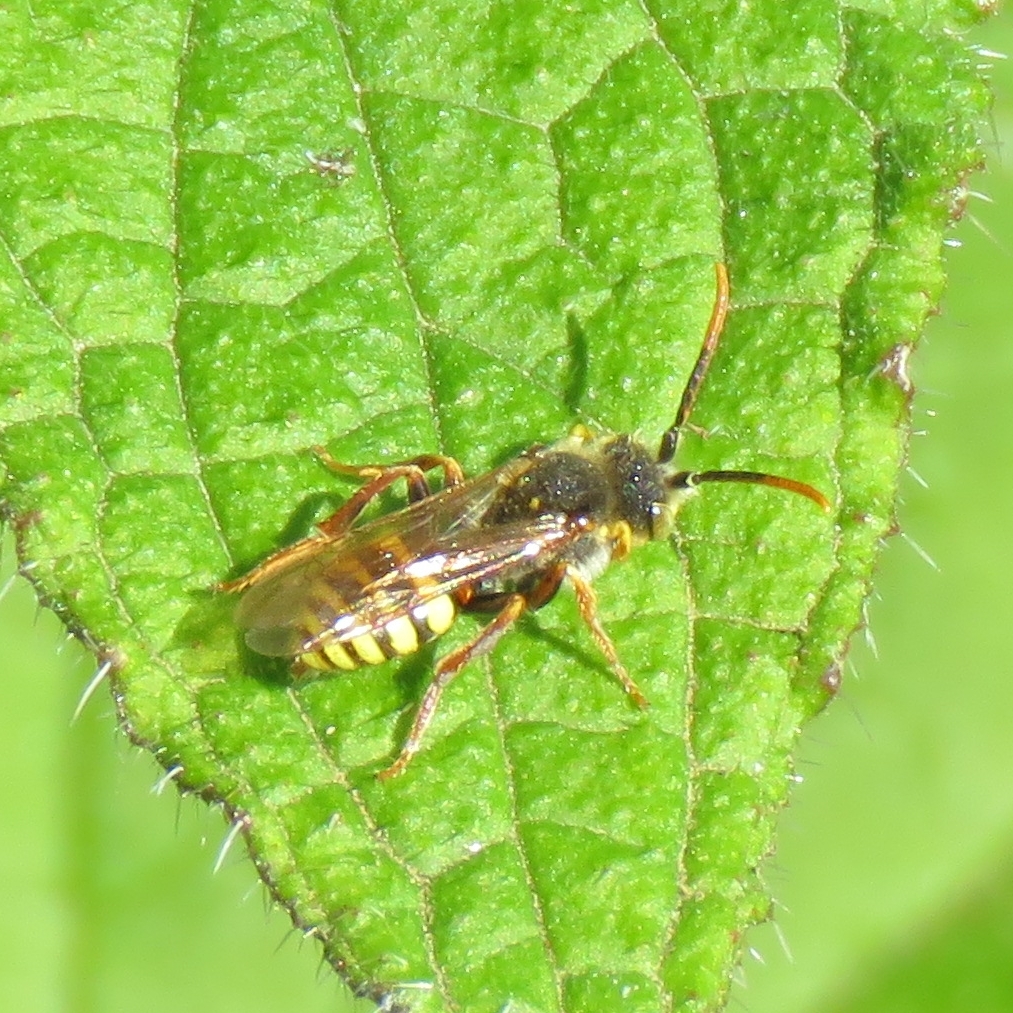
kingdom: Animalia
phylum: Arthropoda
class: Insecta
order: Hymenoptera
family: Apidae
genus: Nomada
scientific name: Nomada lathburiana
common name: Lathbury's nomad bee
